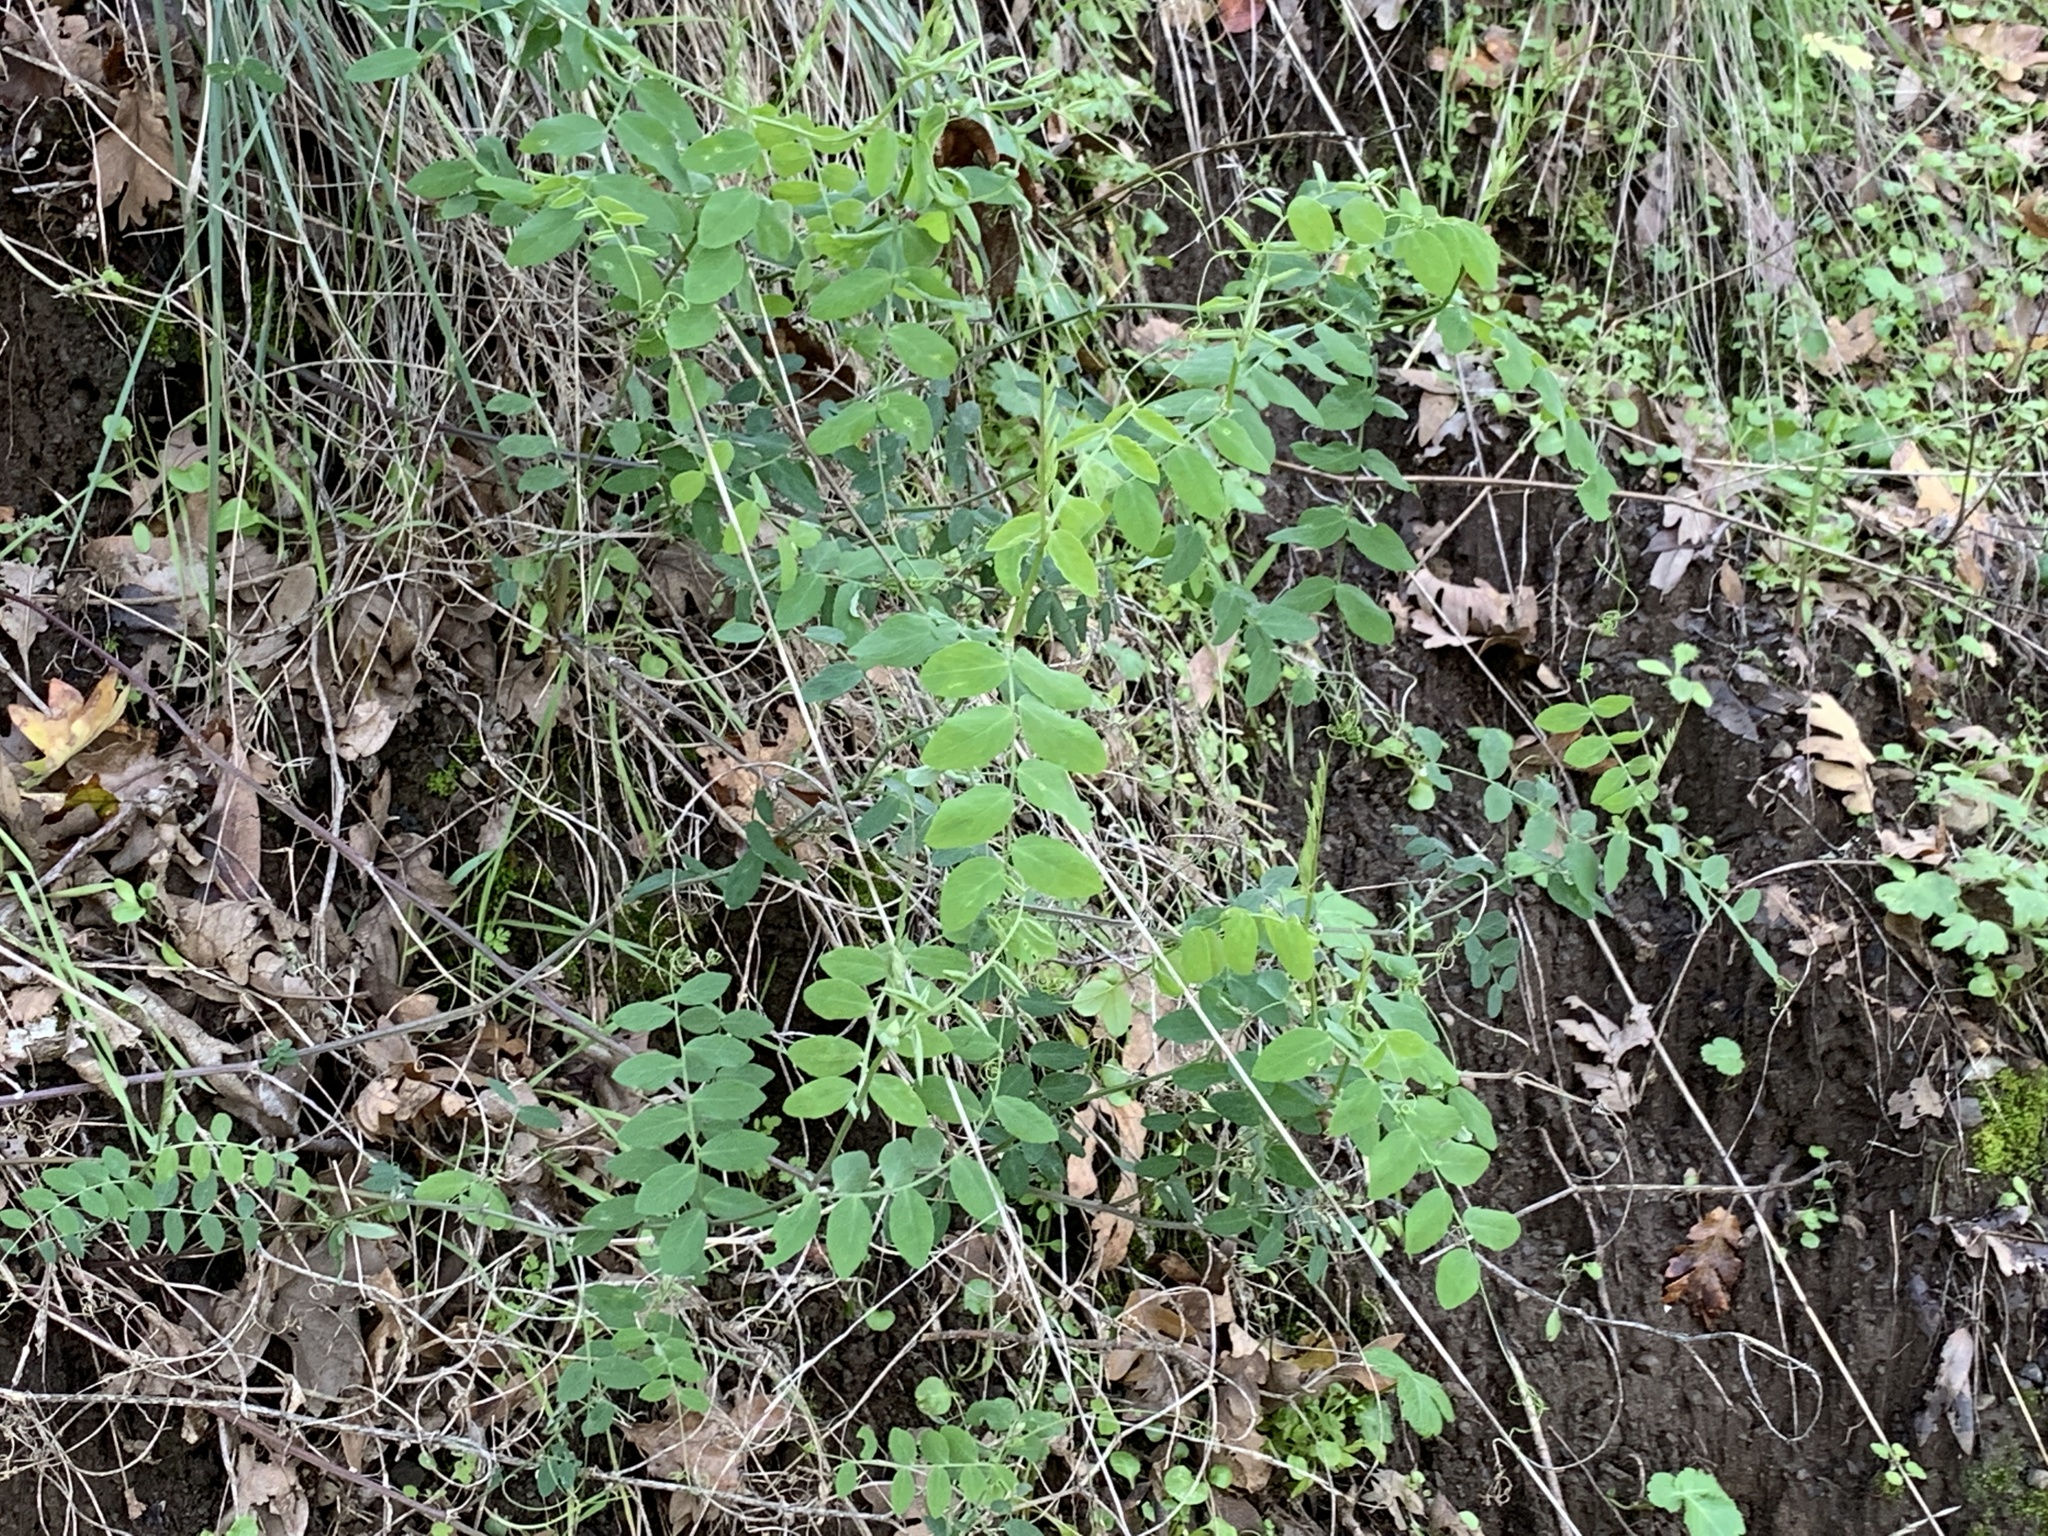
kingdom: Plantae
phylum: Tracheophyta
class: Magnoliopsida
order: Fabales
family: Fabaceae
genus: Lathyrus
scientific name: Lathyrus vestitus
